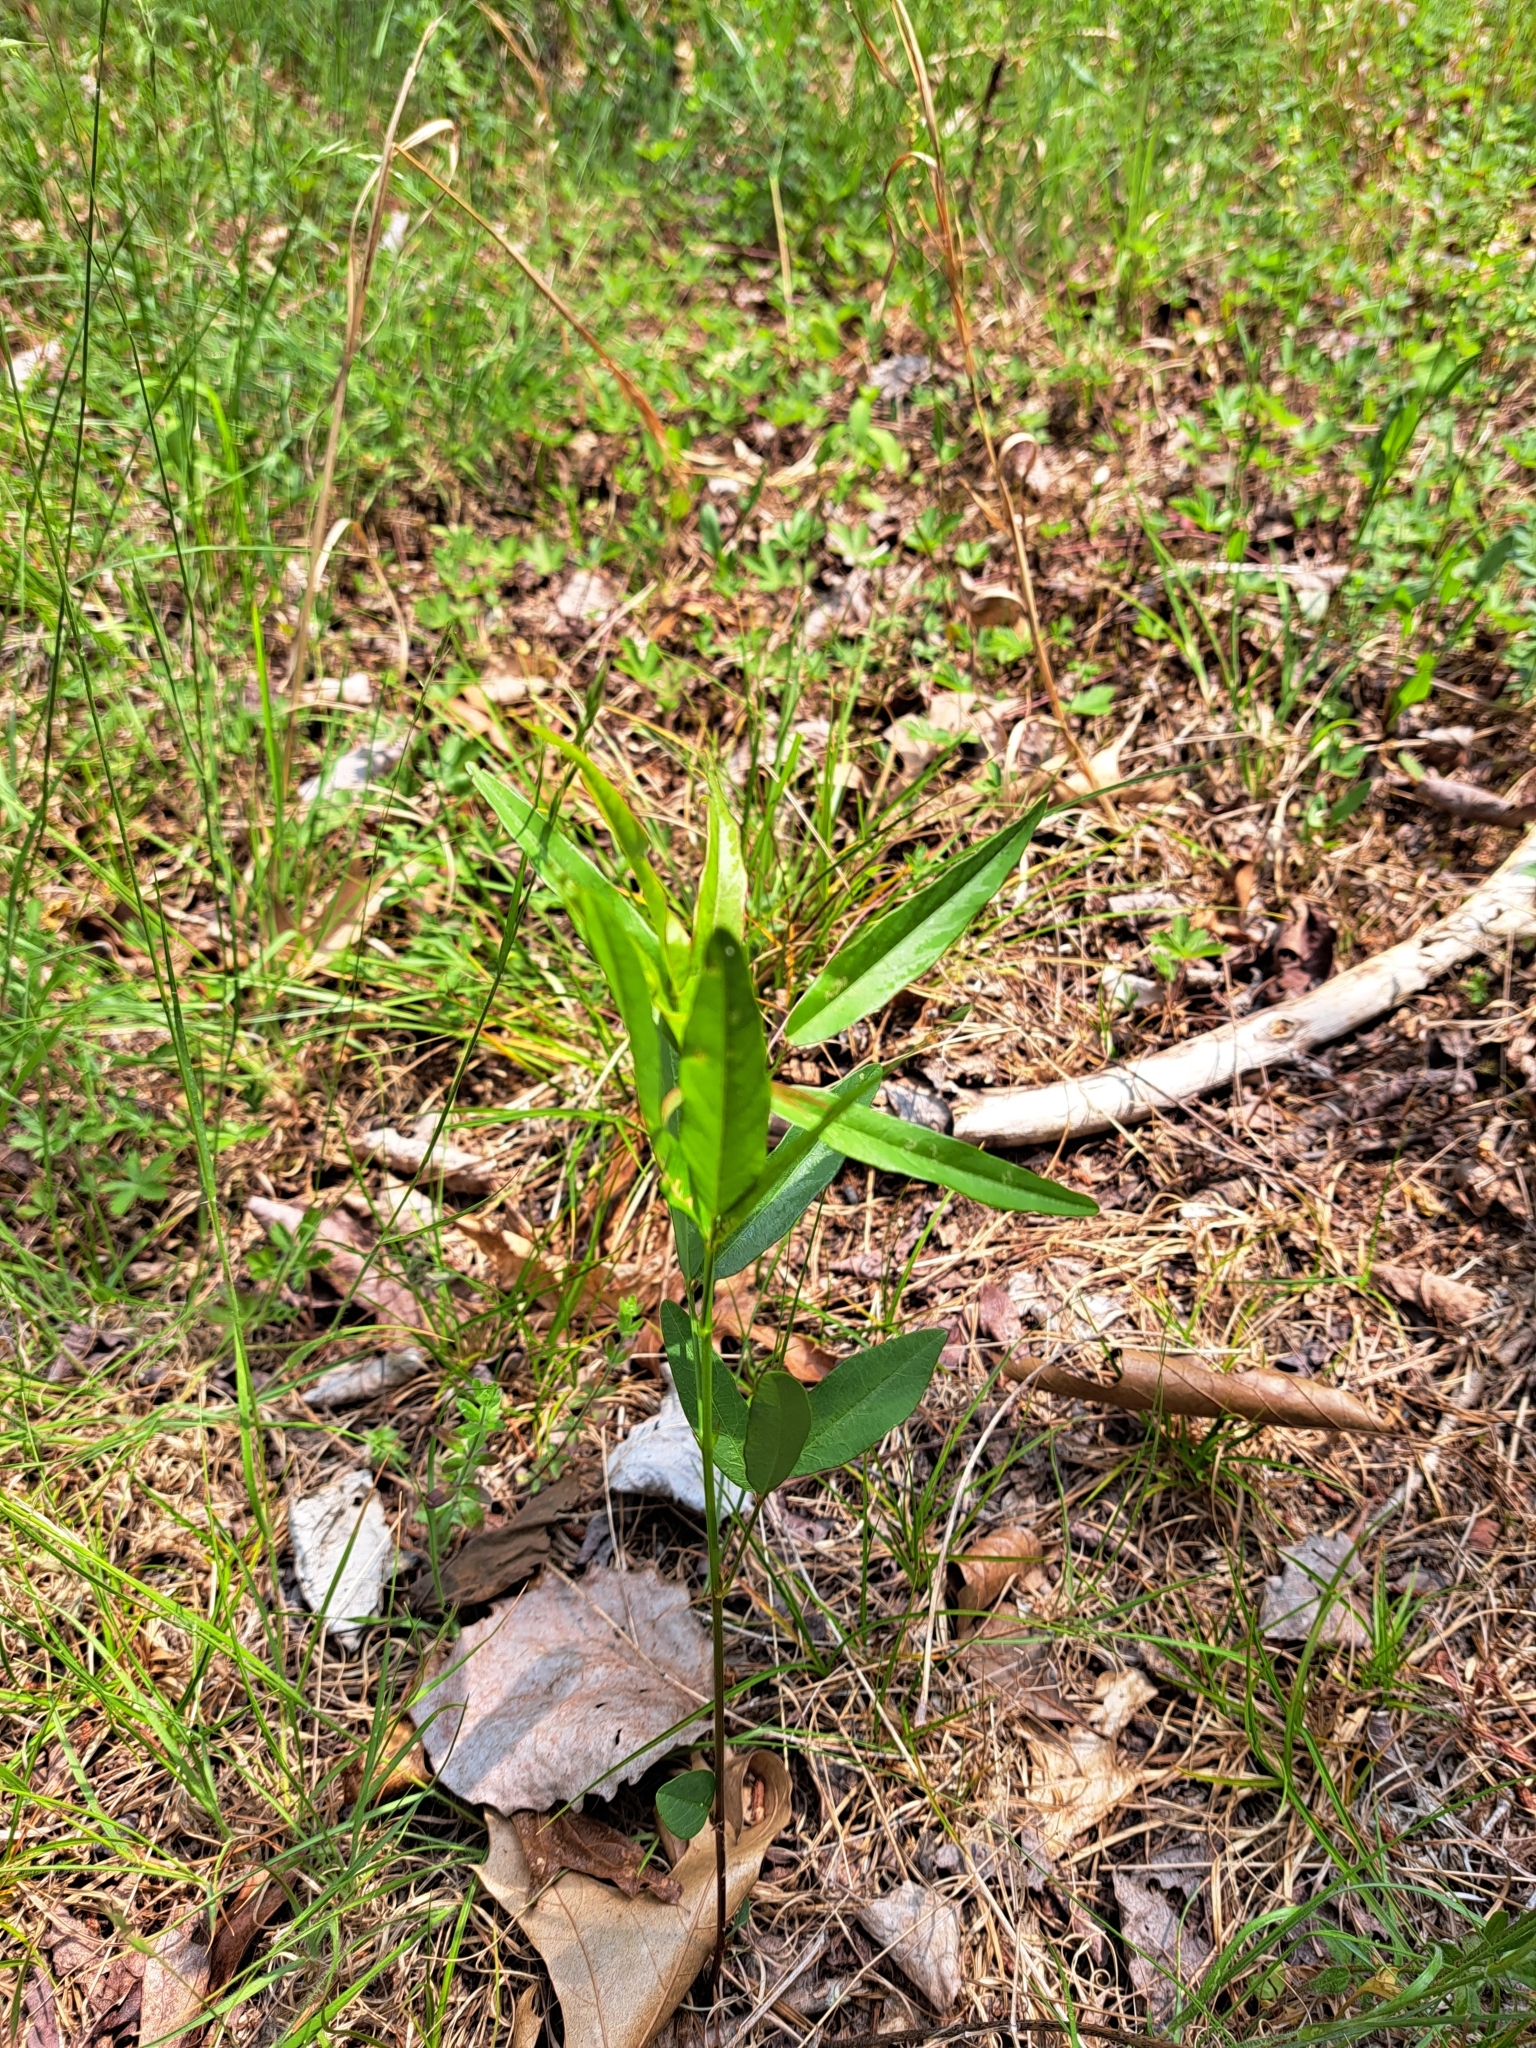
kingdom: Plantae
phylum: Tracheophyta
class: Magnoliopsida
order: Fabales
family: Fabaceae
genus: Desmodium
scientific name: Desmodium paniculatum
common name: Panicled tick-clover
